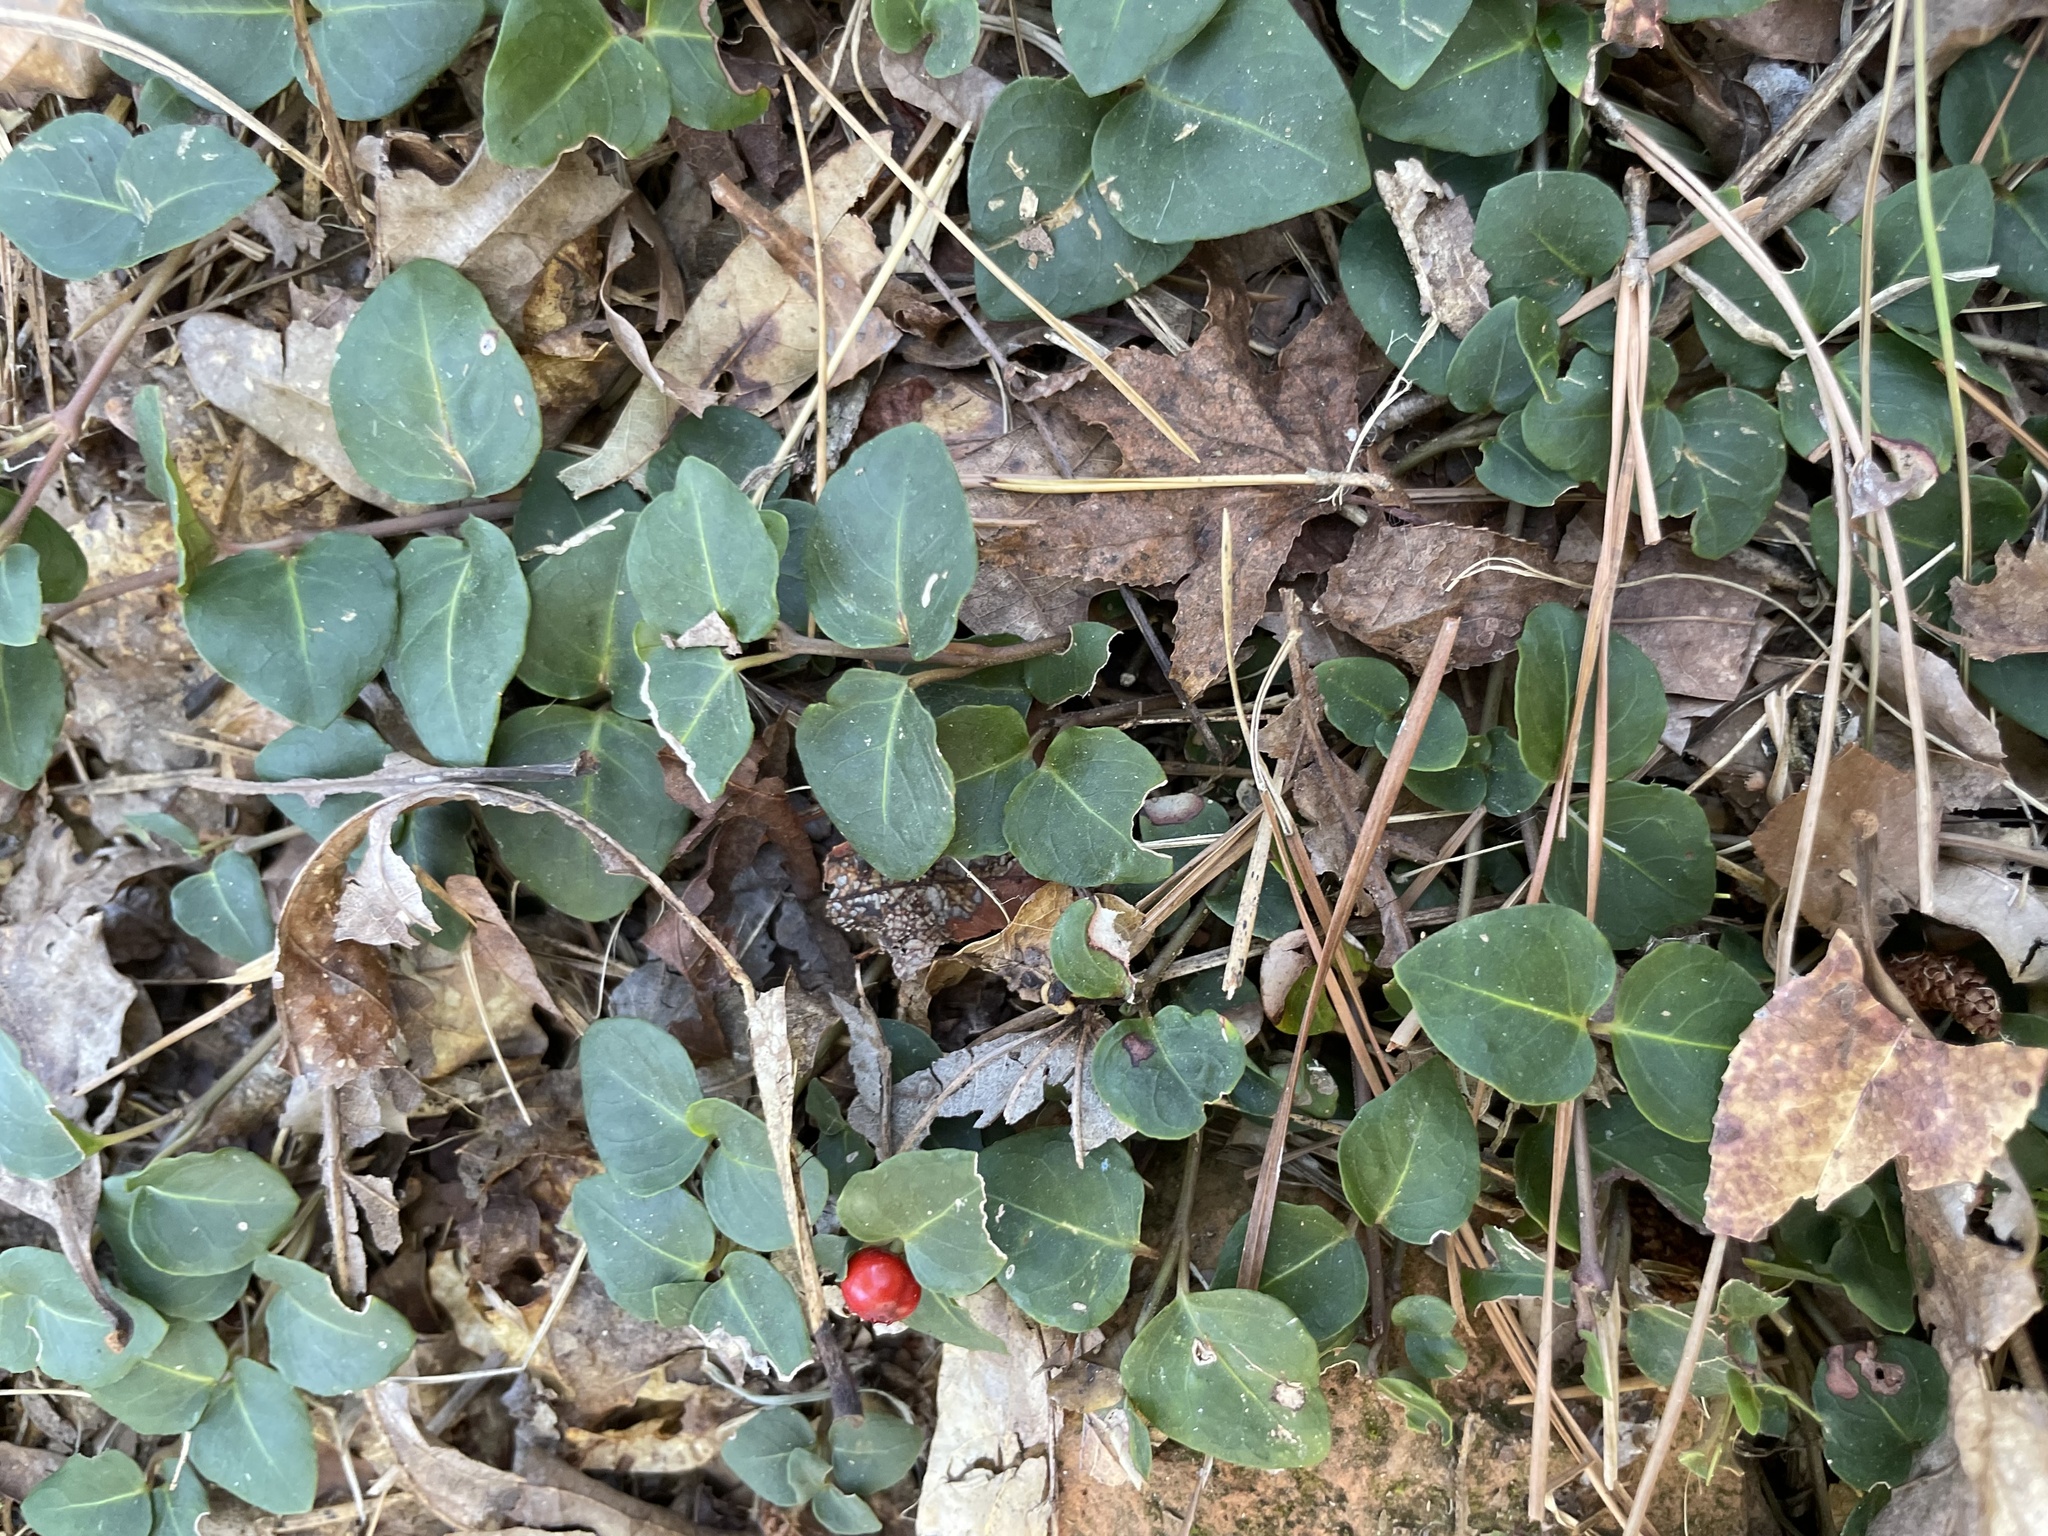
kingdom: Plantae
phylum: Tracheophyta
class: Magnoliopsida
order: Gentianales
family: Rubiaceae
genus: Mitchella
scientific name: Mitchella repens
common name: Partridge-berry
